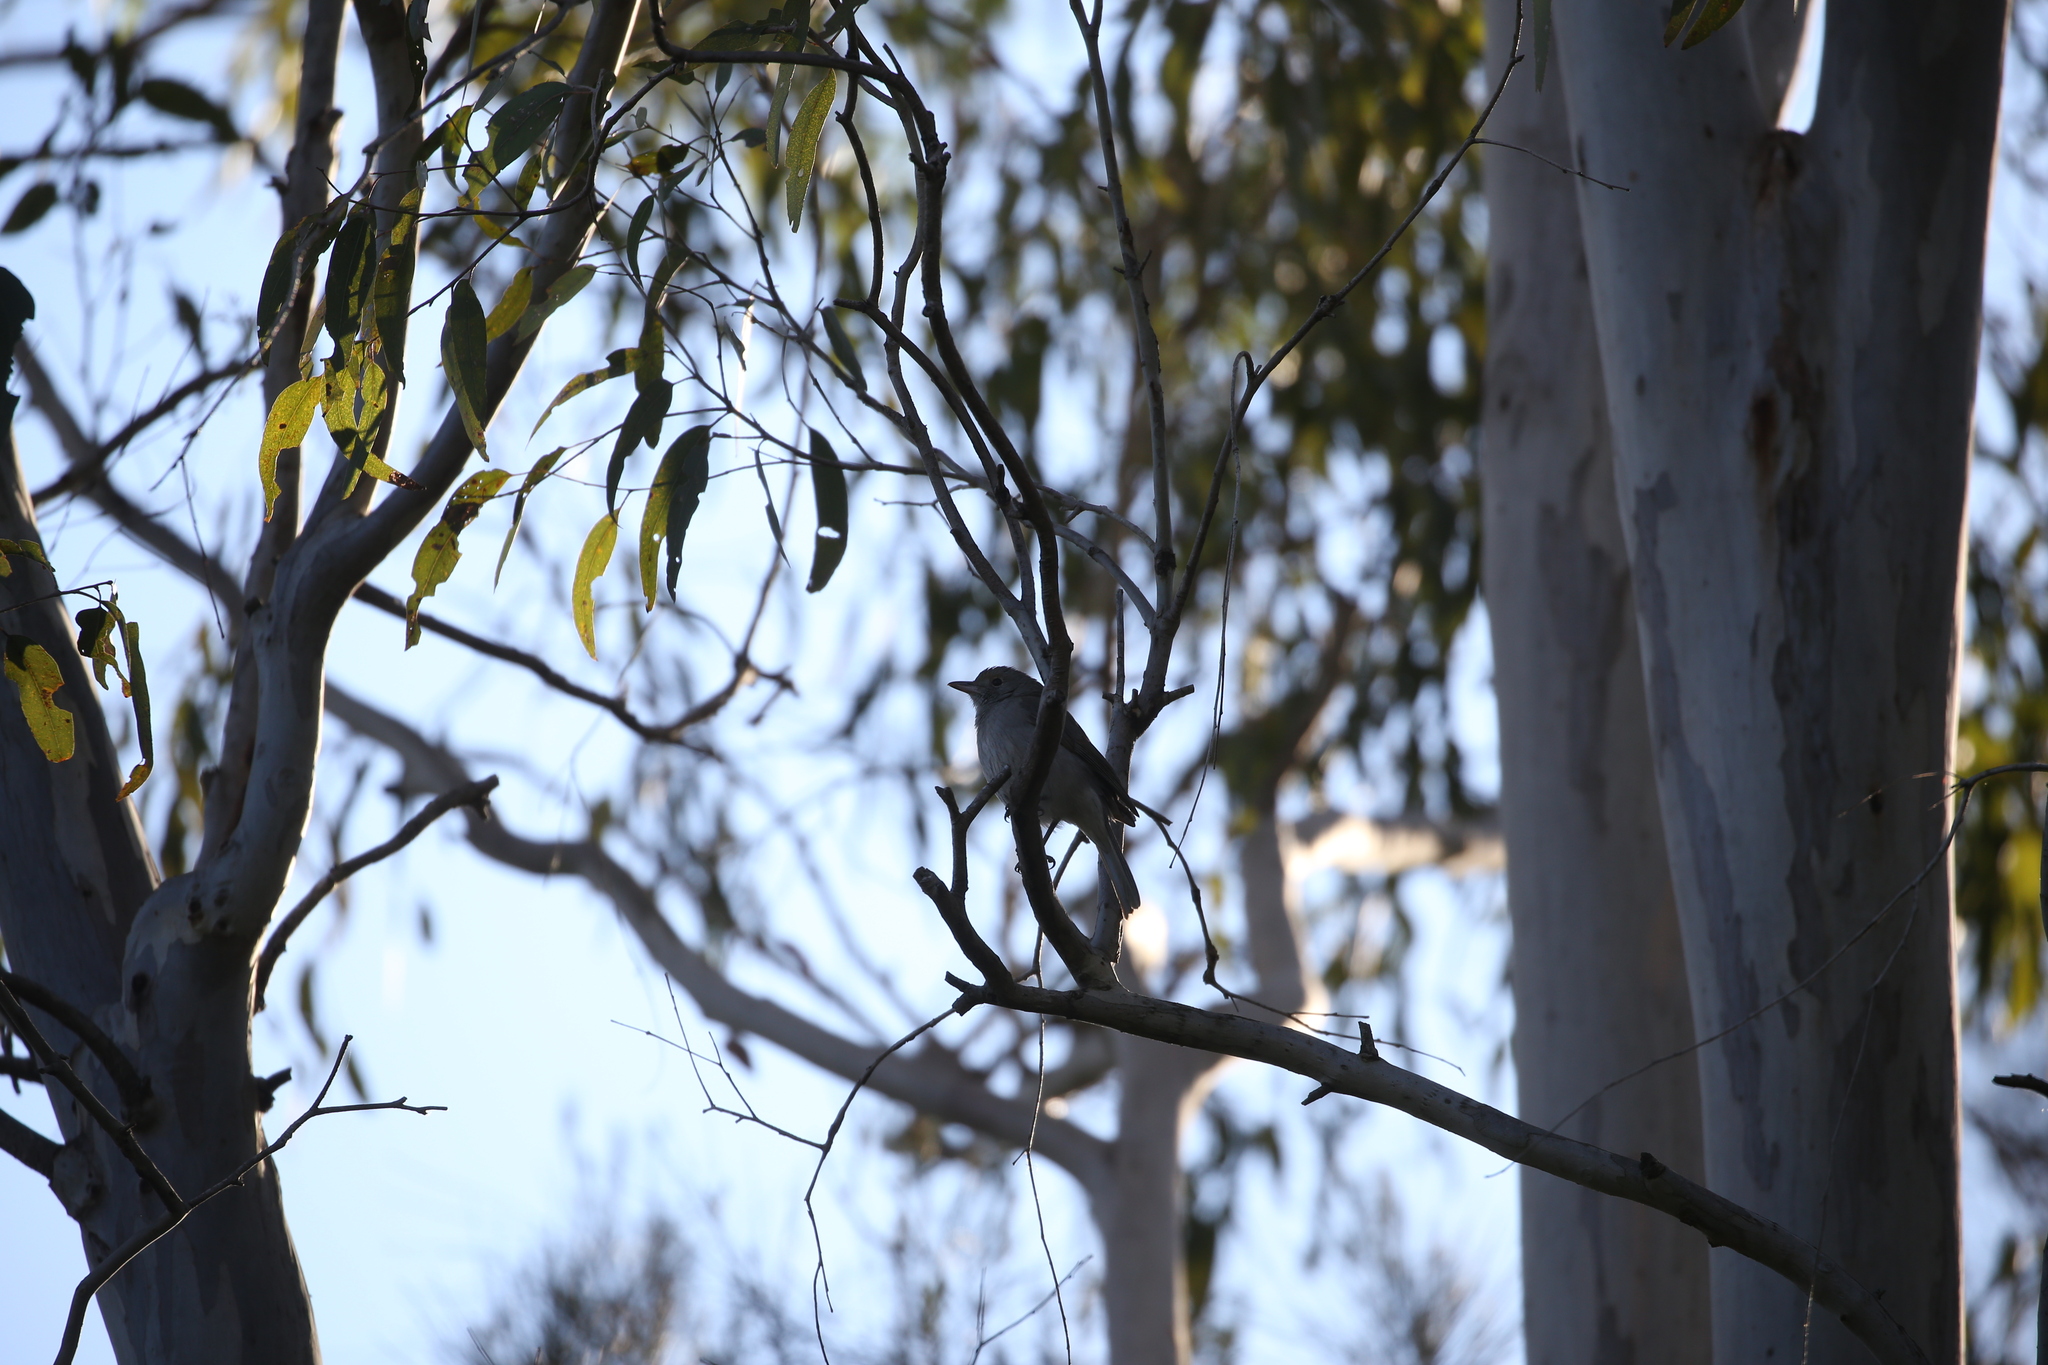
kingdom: Animalia
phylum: Chordata
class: Aves
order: Passeriformes
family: Pachycephalidae
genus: Colluricincla
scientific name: Colluricincla harmonica
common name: Grey shrikethrush
